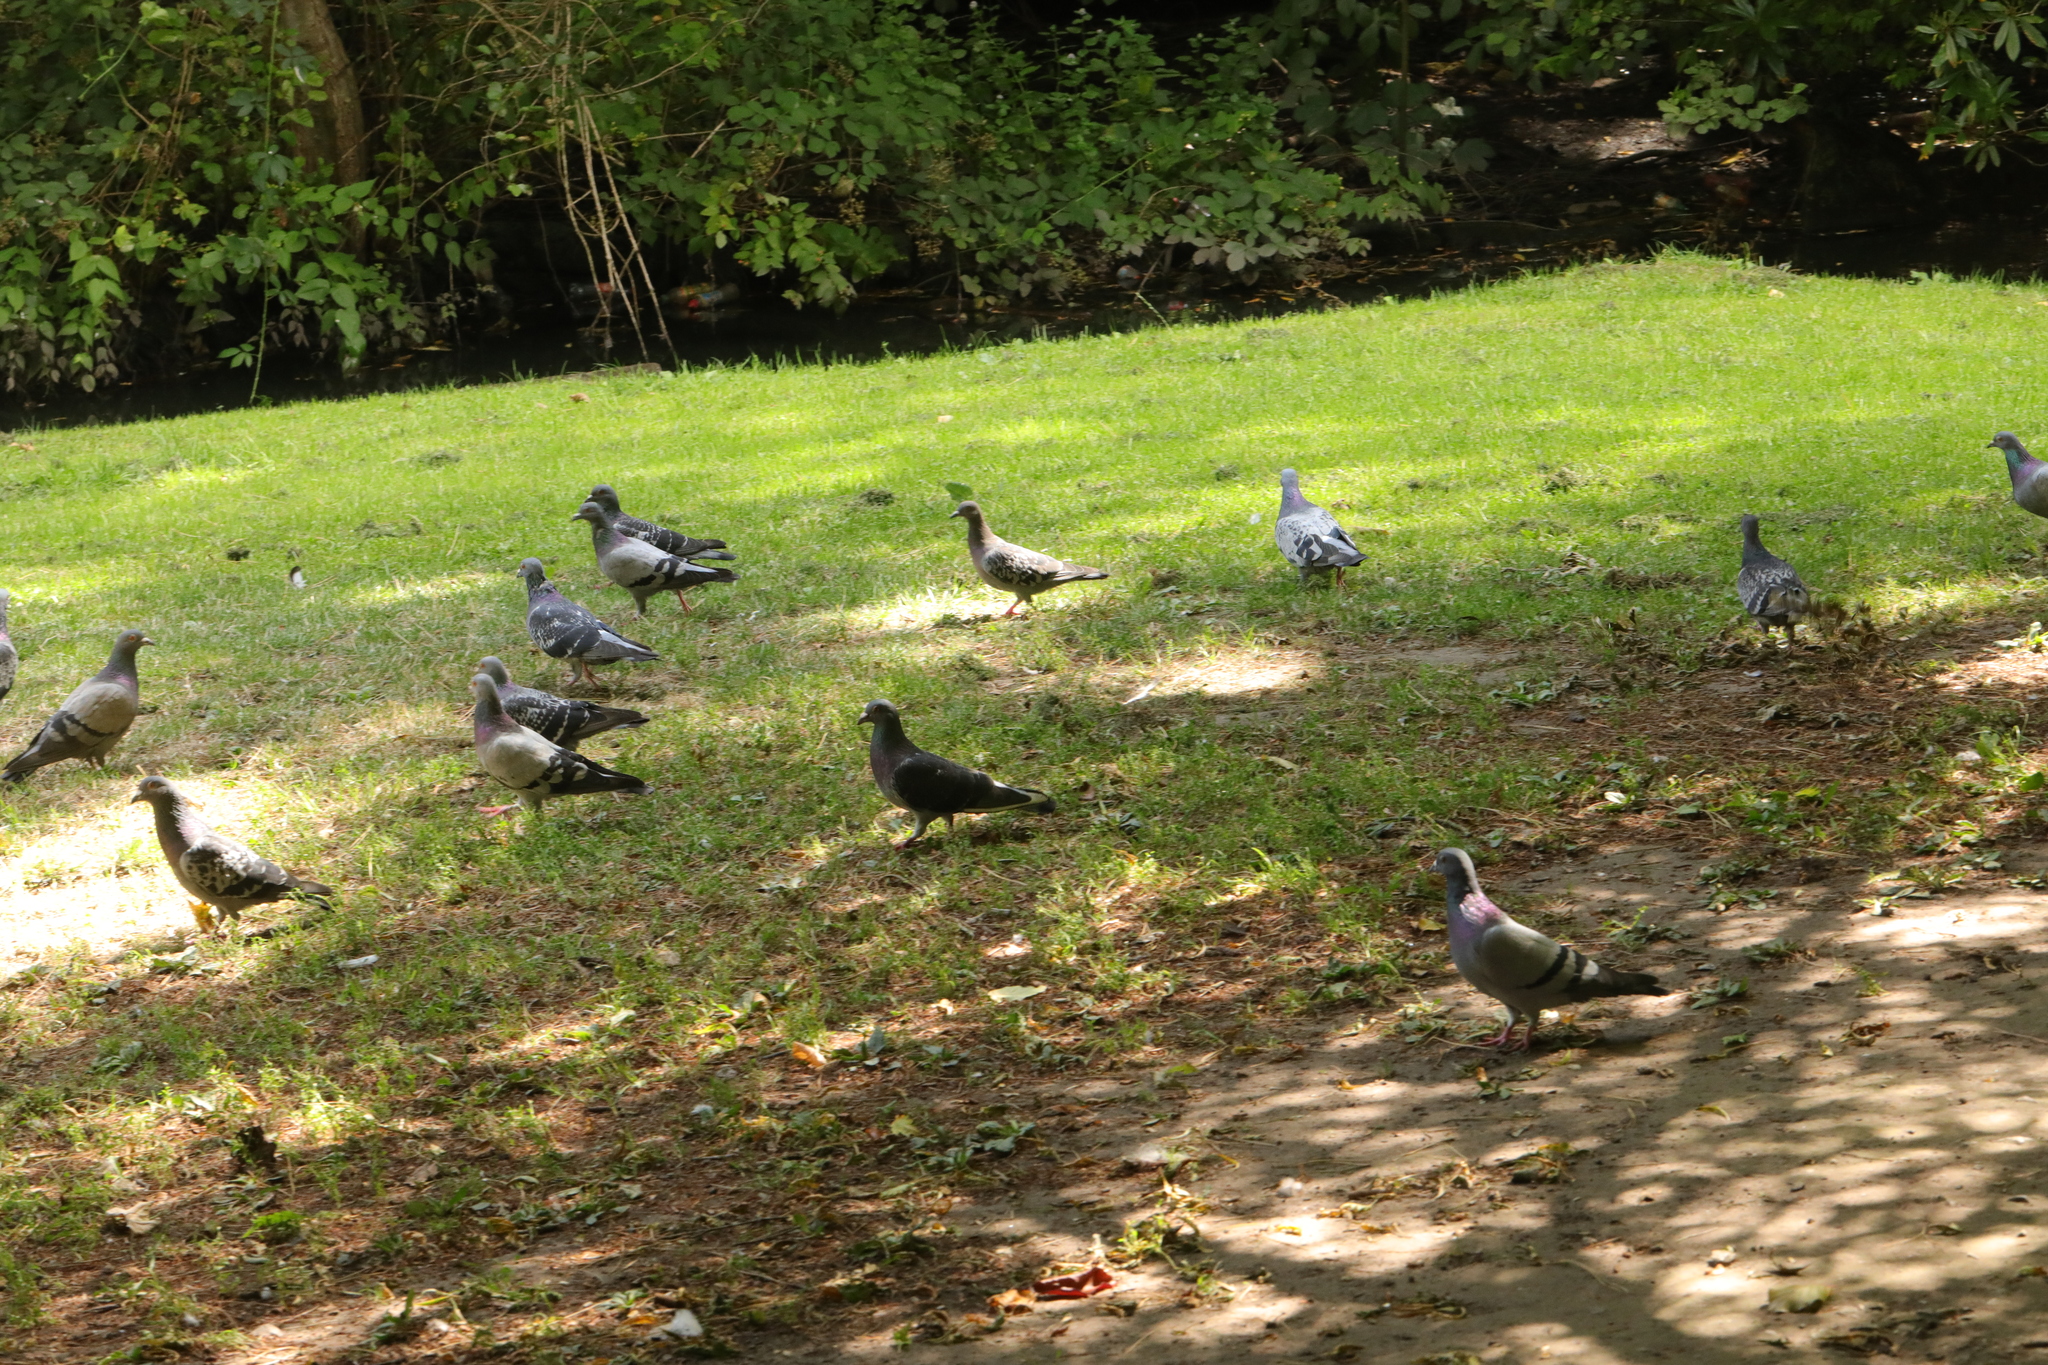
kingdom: Animalia
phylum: Chordata
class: Aves
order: Columbiformes
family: Columbidae
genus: Columba
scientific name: Columba livia
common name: Rock pigeon
